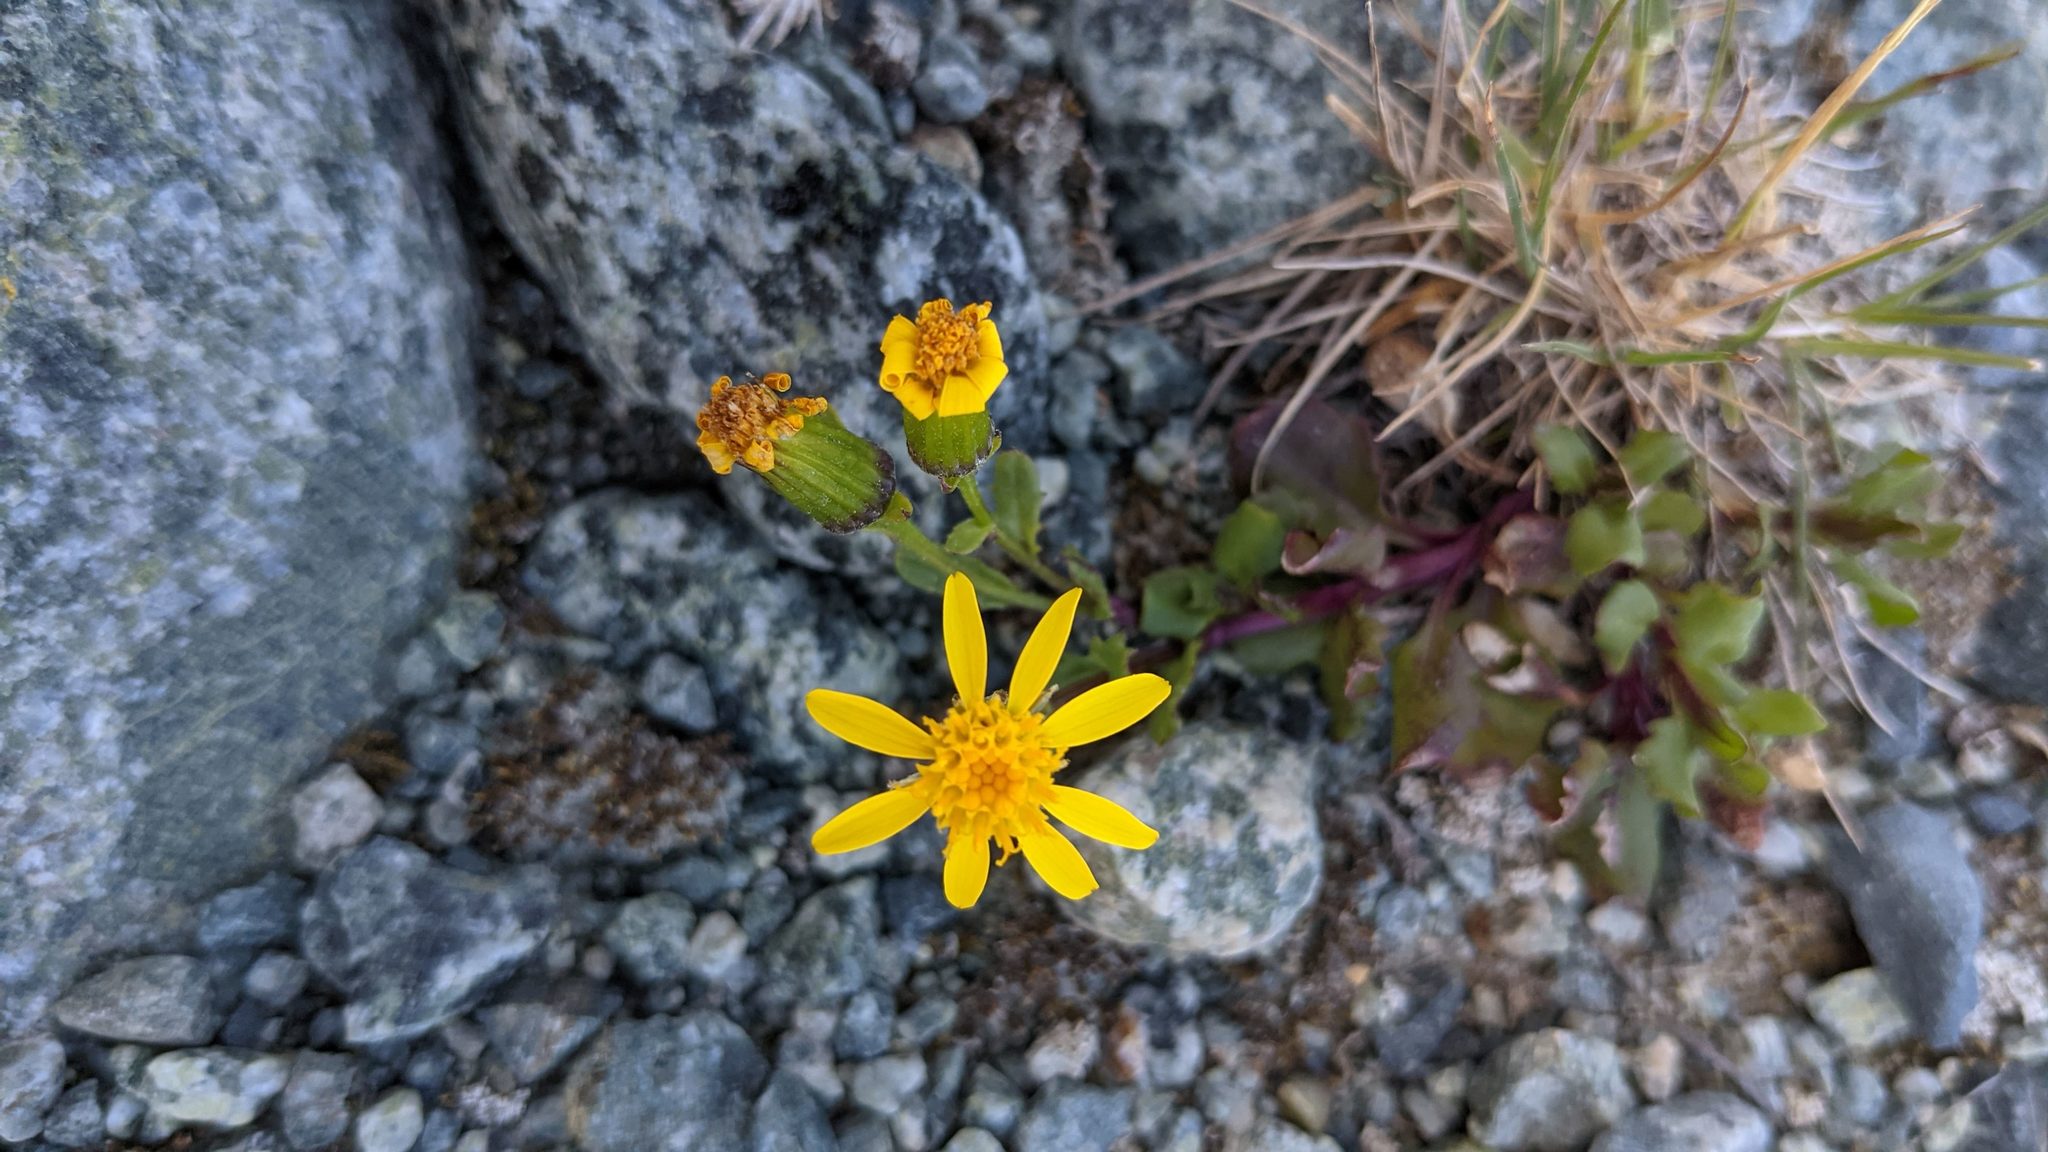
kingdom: Plantae
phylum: Tracheophyta
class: Magnoliopsida
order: Asterales
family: Asteraceae
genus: Senecio
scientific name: Senecio fremontii
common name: Fremont's groundsel
